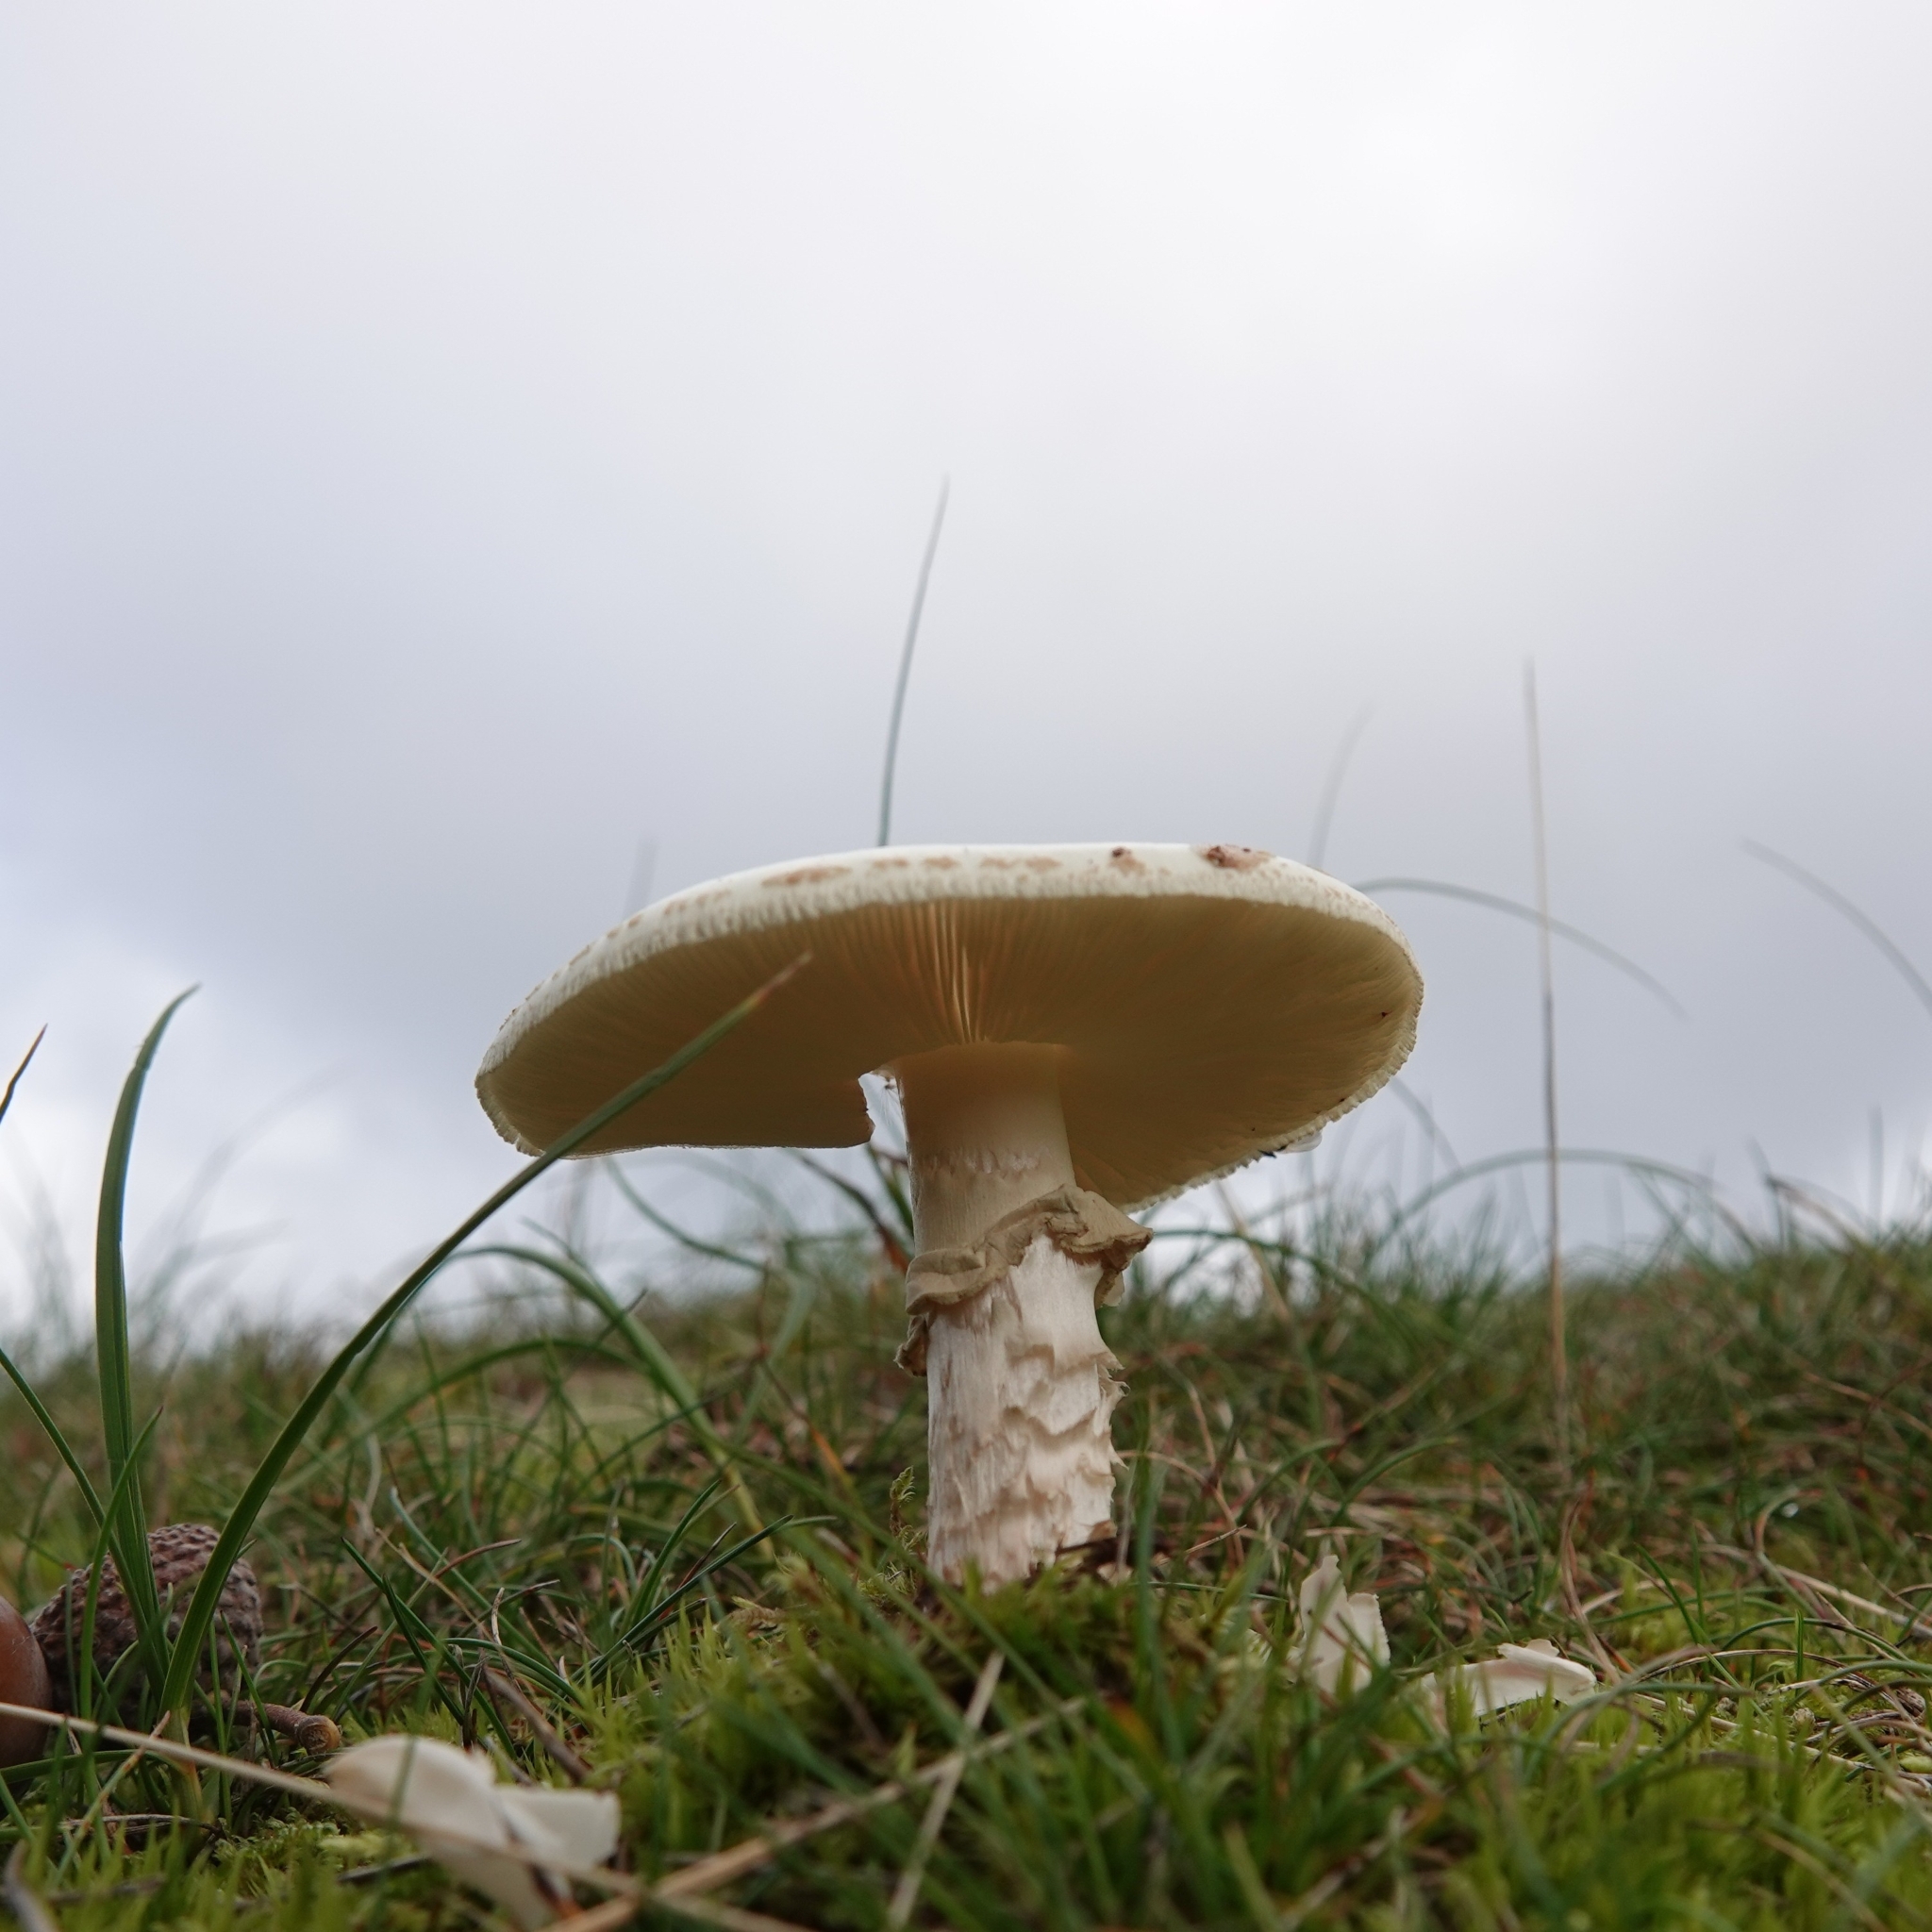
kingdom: Fungi
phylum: Basidiomycota
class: Agaricomycetes
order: Agaricales
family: Amanitaceae
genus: Amanita
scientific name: Amanita citrina
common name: False death-cap
